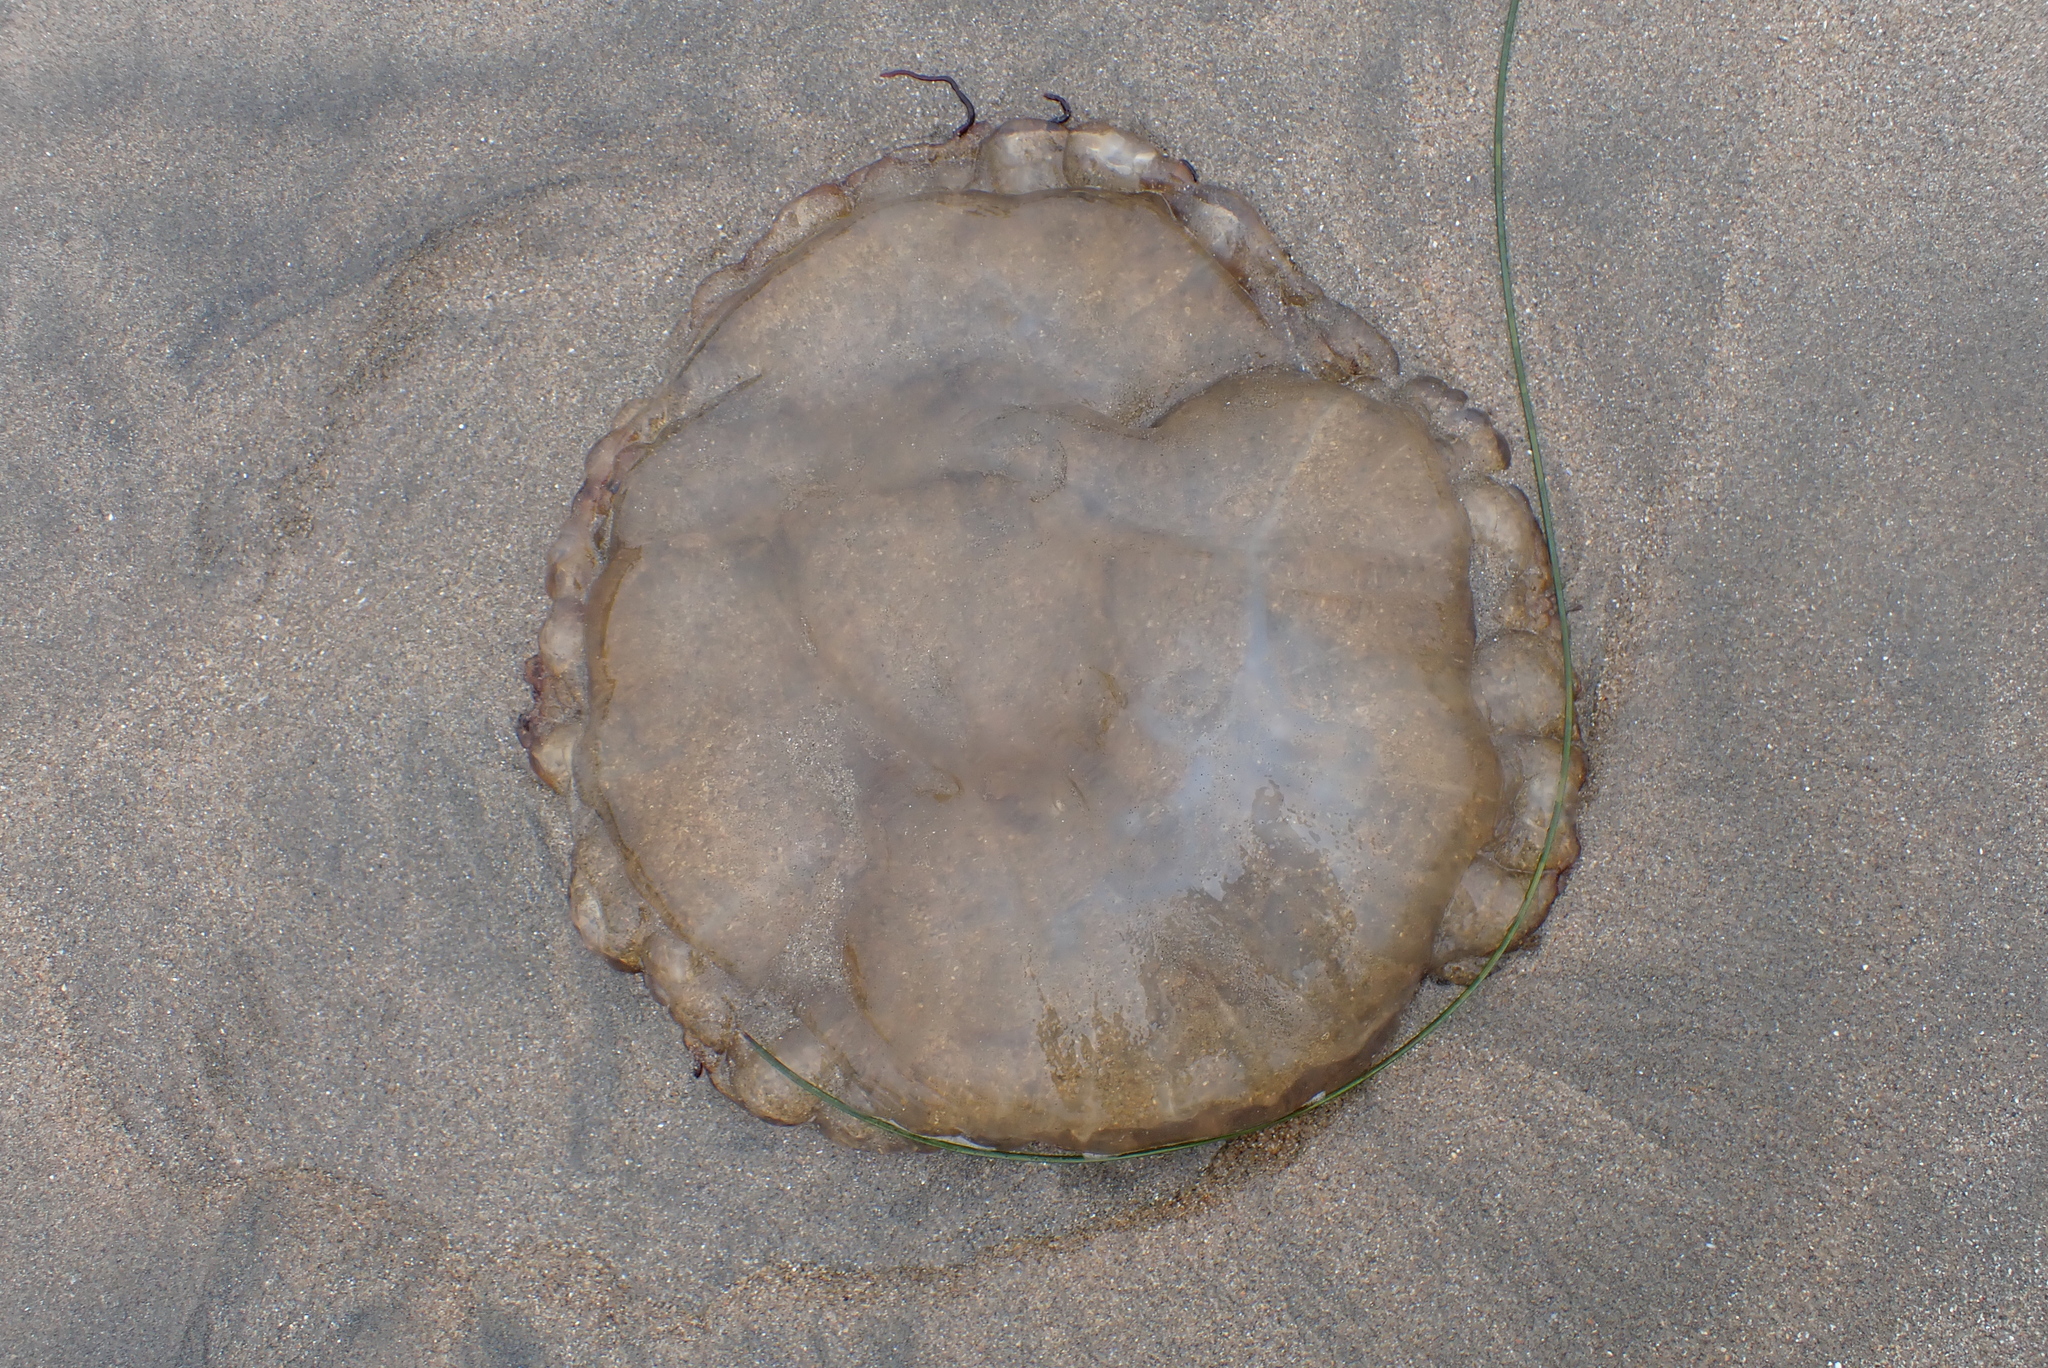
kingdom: Animalia
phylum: Cnidaria
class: Scyphozoa
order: Semaeostomeae
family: Pelagiidae
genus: Chrysaora
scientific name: Chrysaora fuscescens
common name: Sea nettle
